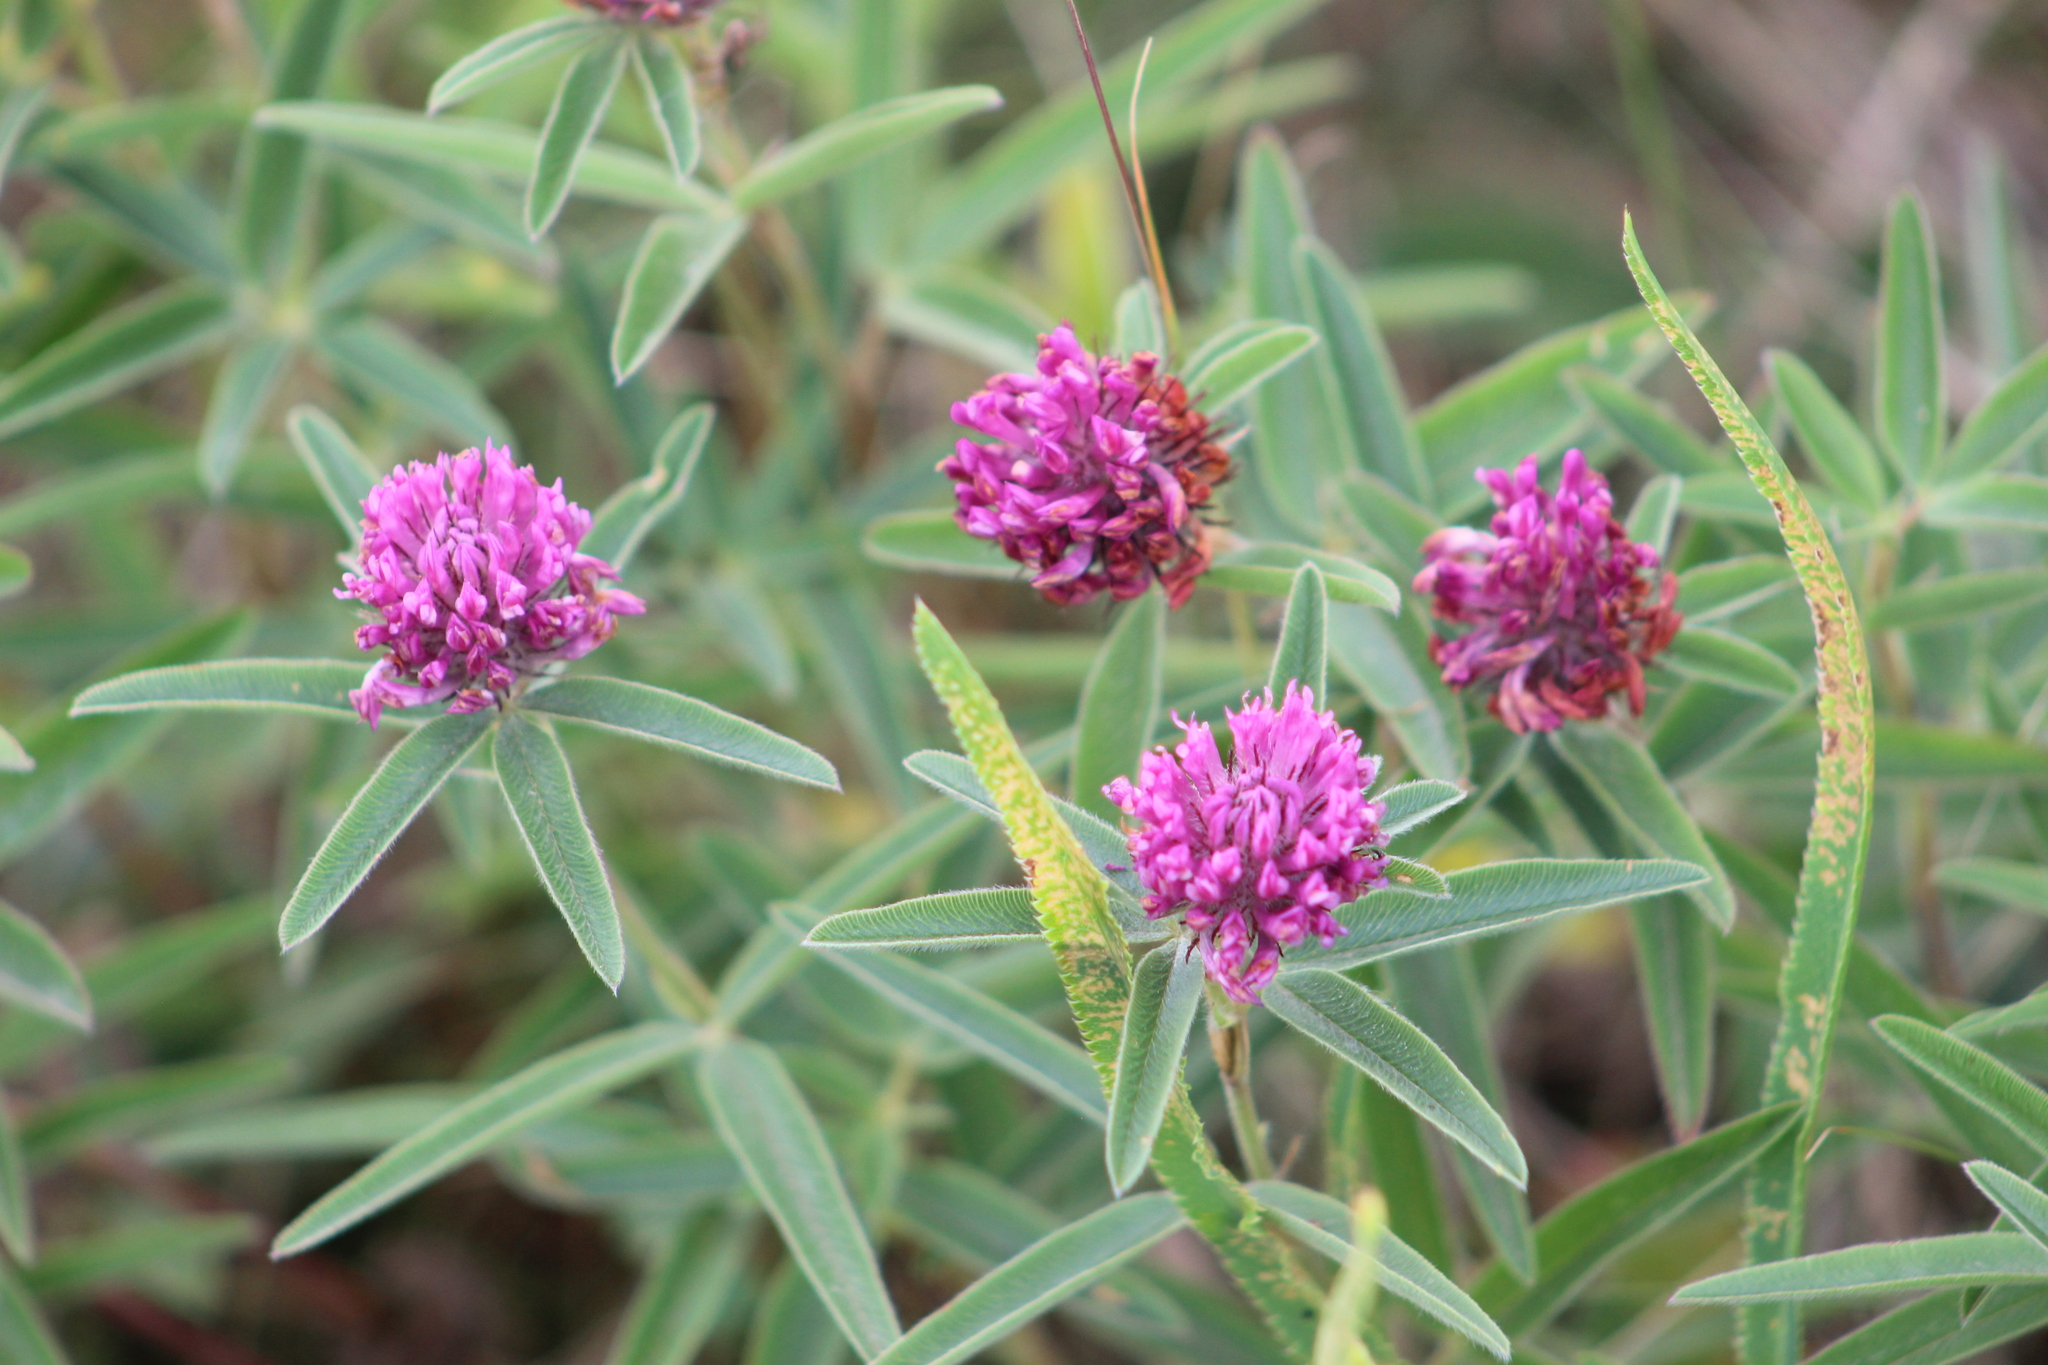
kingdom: Plantae
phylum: Tracheophyta
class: Magnoliopsida
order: Fabales
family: Fabaceae
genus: Trifolium
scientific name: Trifolium alpestre
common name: Owl-head clover
